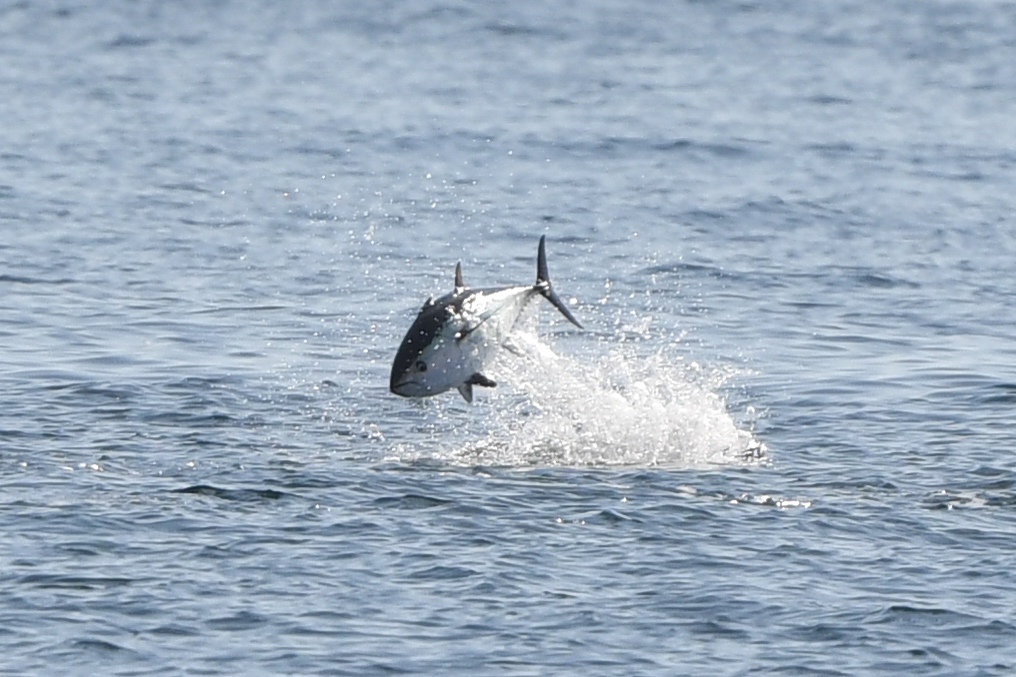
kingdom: Animalia
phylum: Chordata
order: Perciformes
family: Scombridae
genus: Thunnus
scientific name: Thunnus thynnus
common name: Bluefin tuna
